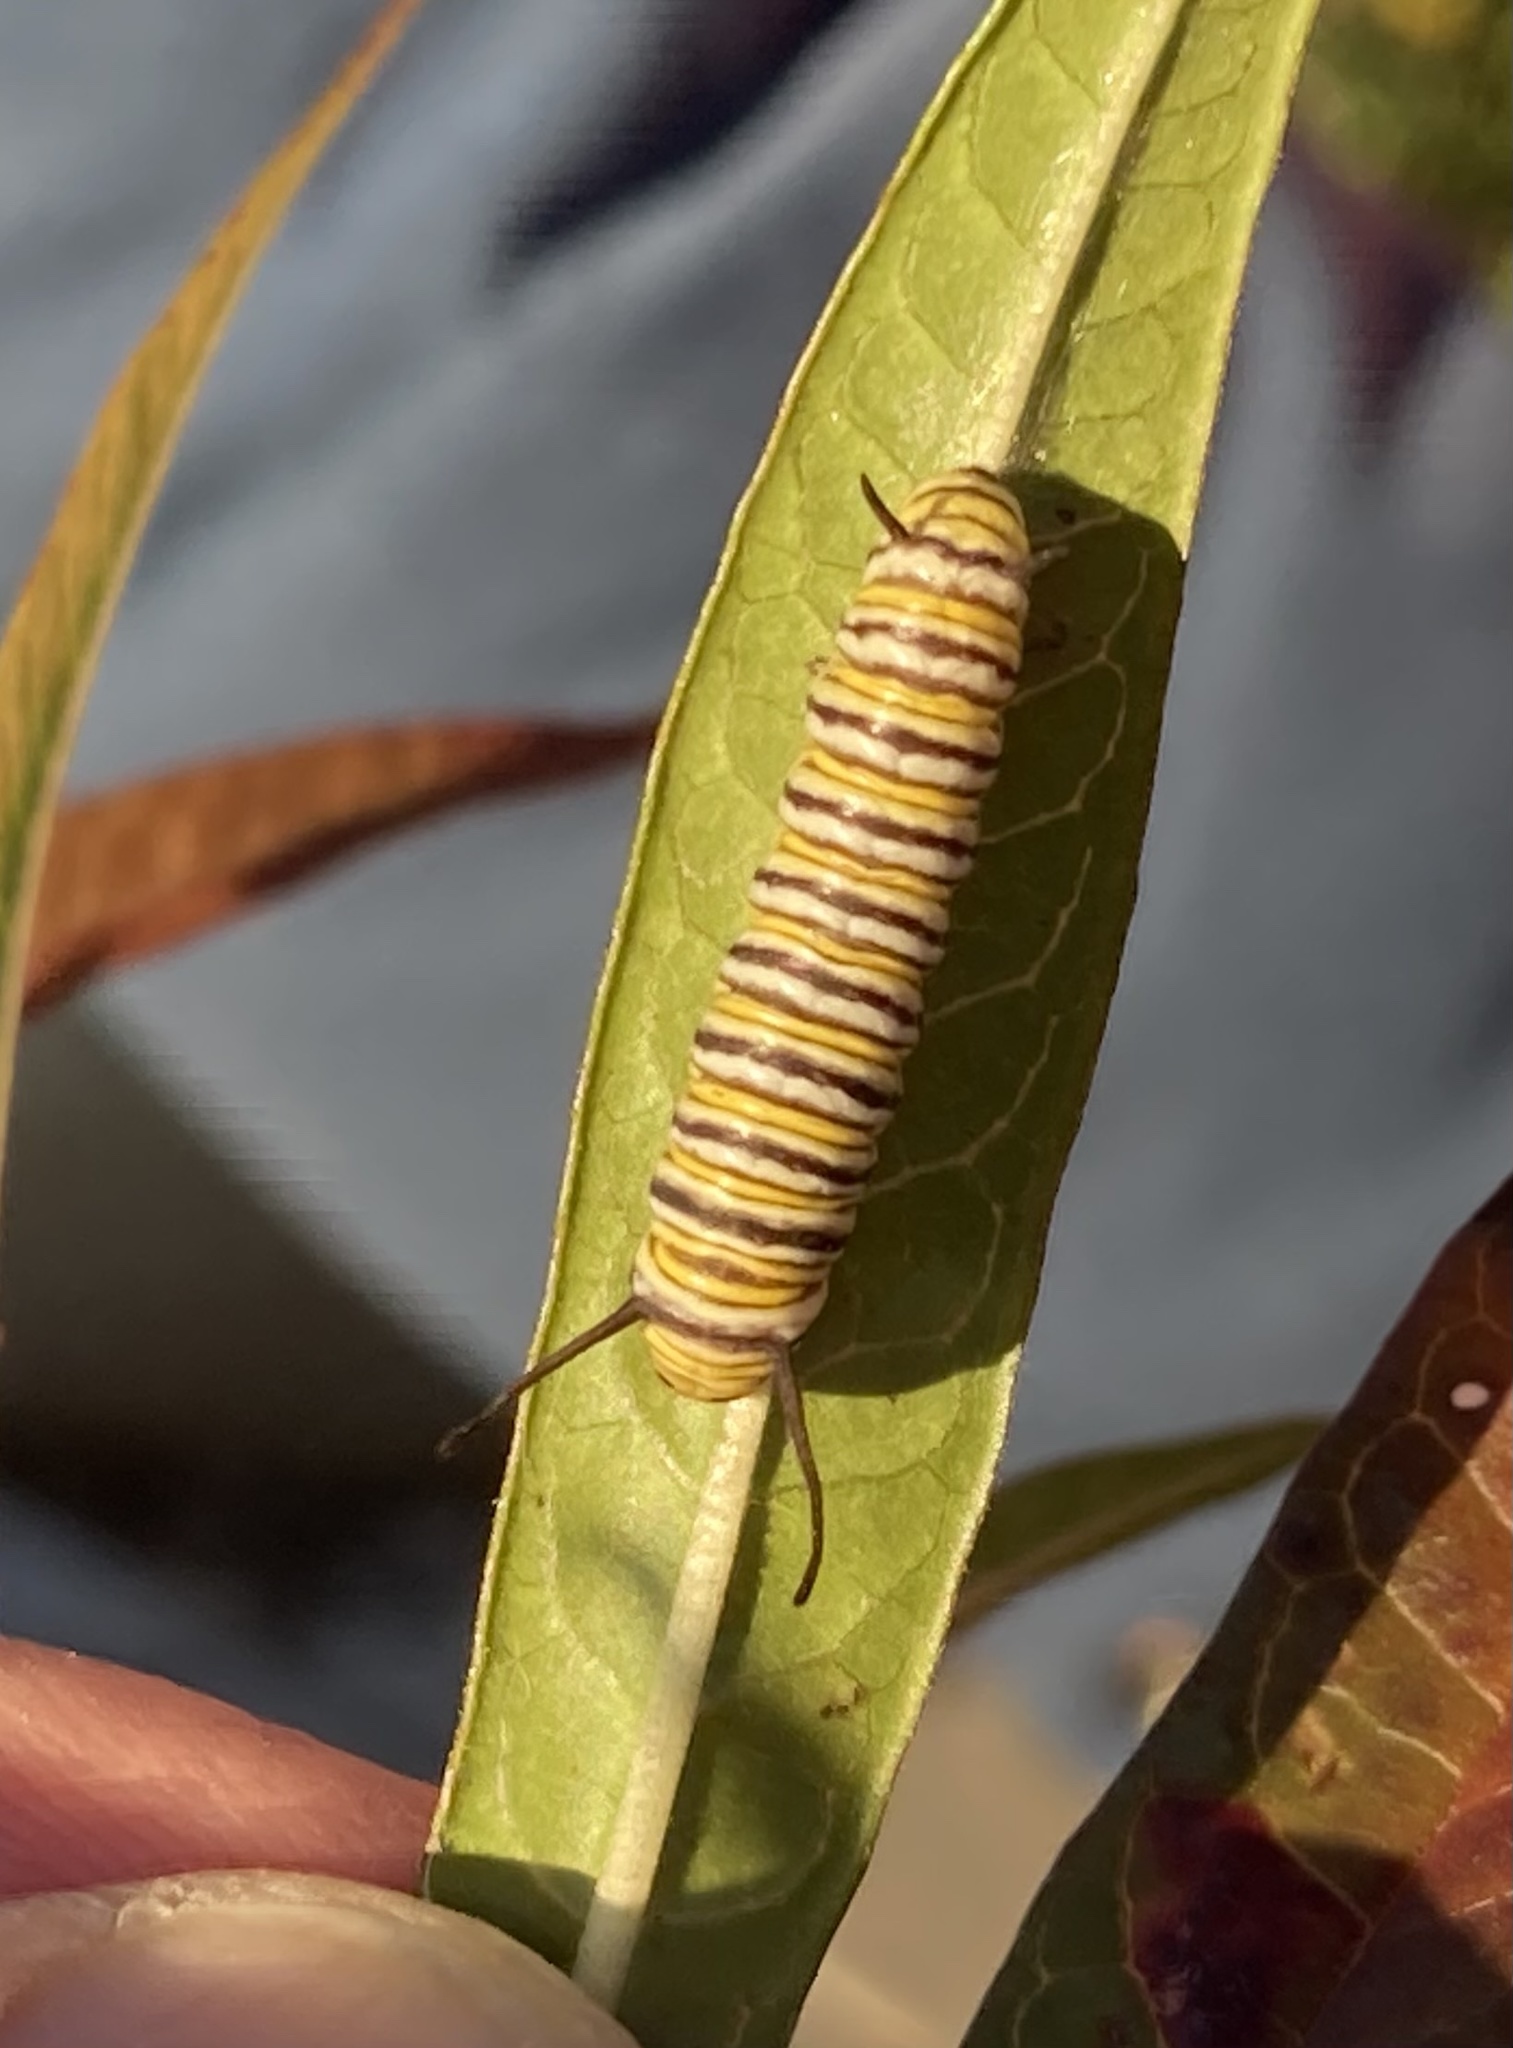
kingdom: Animalia
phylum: Arthropoda
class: Insecta
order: Lepidoptera
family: Nymphalidae
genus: Danaus
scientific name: Danaus plexippus
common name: Monarch
